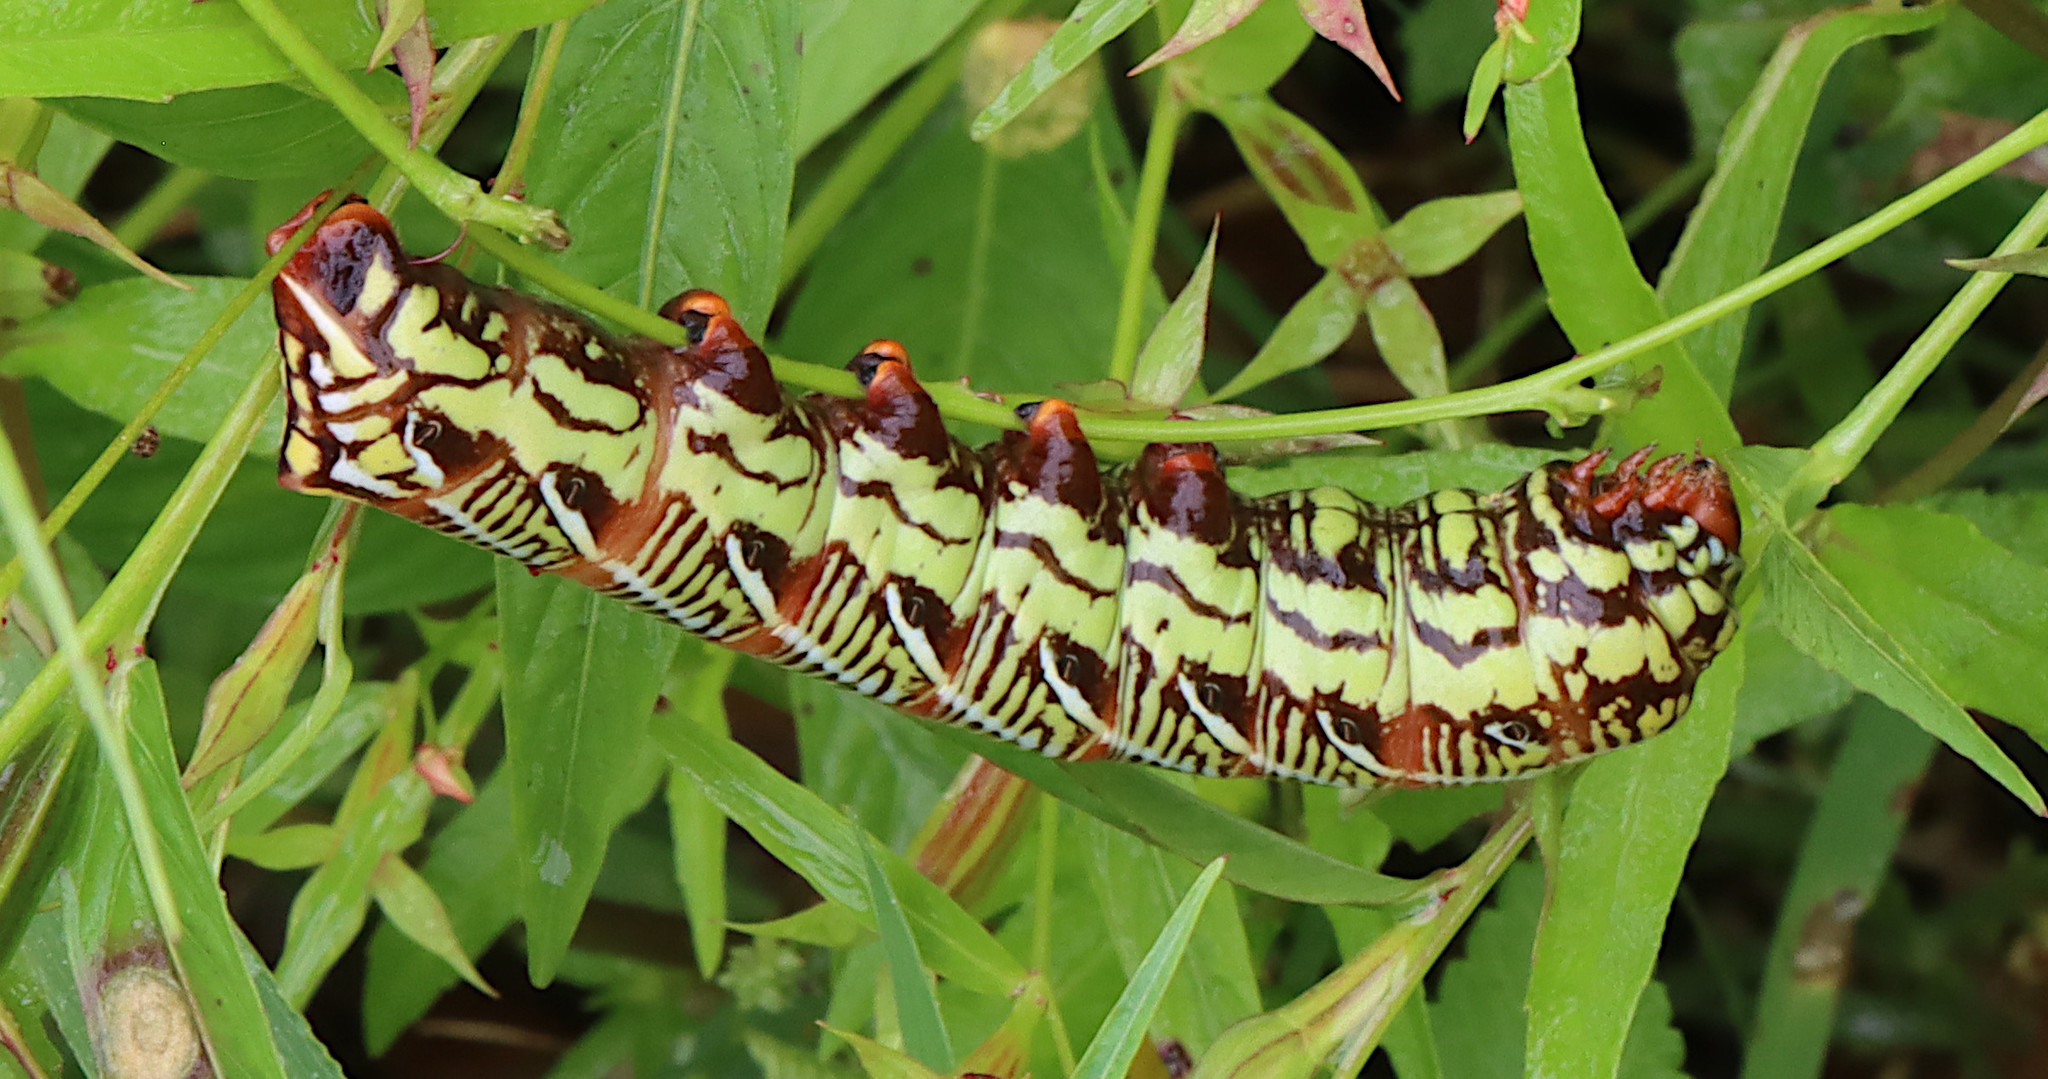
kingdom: Animalia
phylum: Arthropoda
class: Insecta
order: Lepidoptera
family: Sphingidae
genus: Eumorpha
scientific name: Eumorpha fasciatus
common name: Banded sphinx
